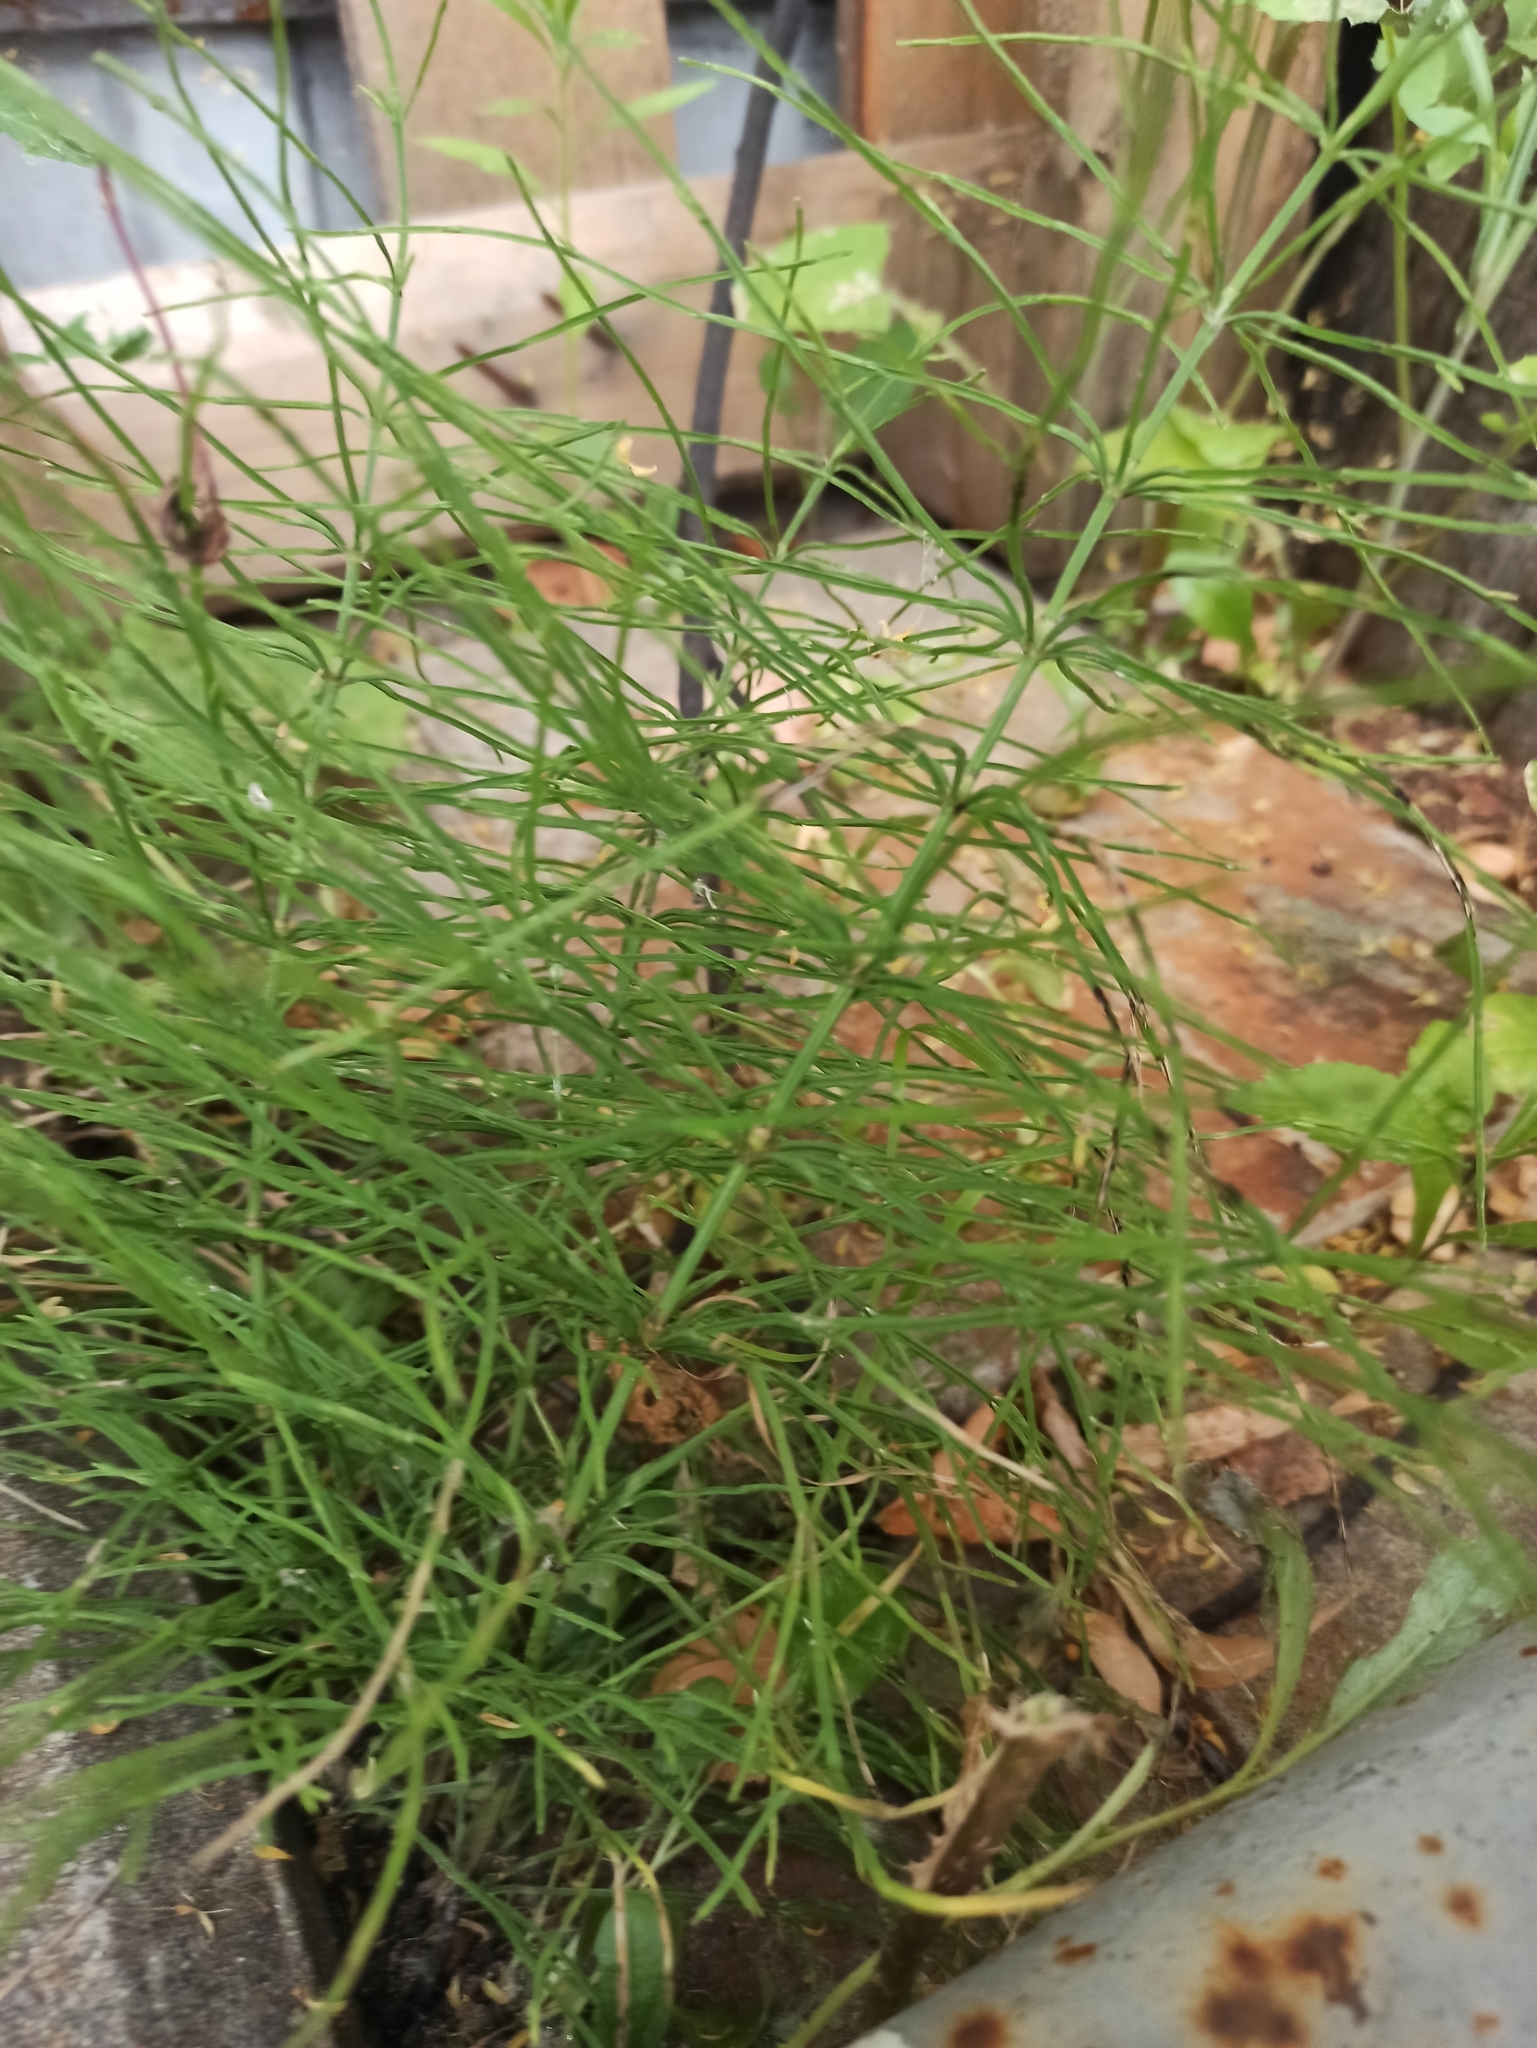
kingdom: Plantae
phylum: Tracheophyta
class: Polypodiopsida
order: Equisetales
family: Equisetaceae
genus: Equisetum
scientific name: Equisetum arvense
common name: Field horsetail
